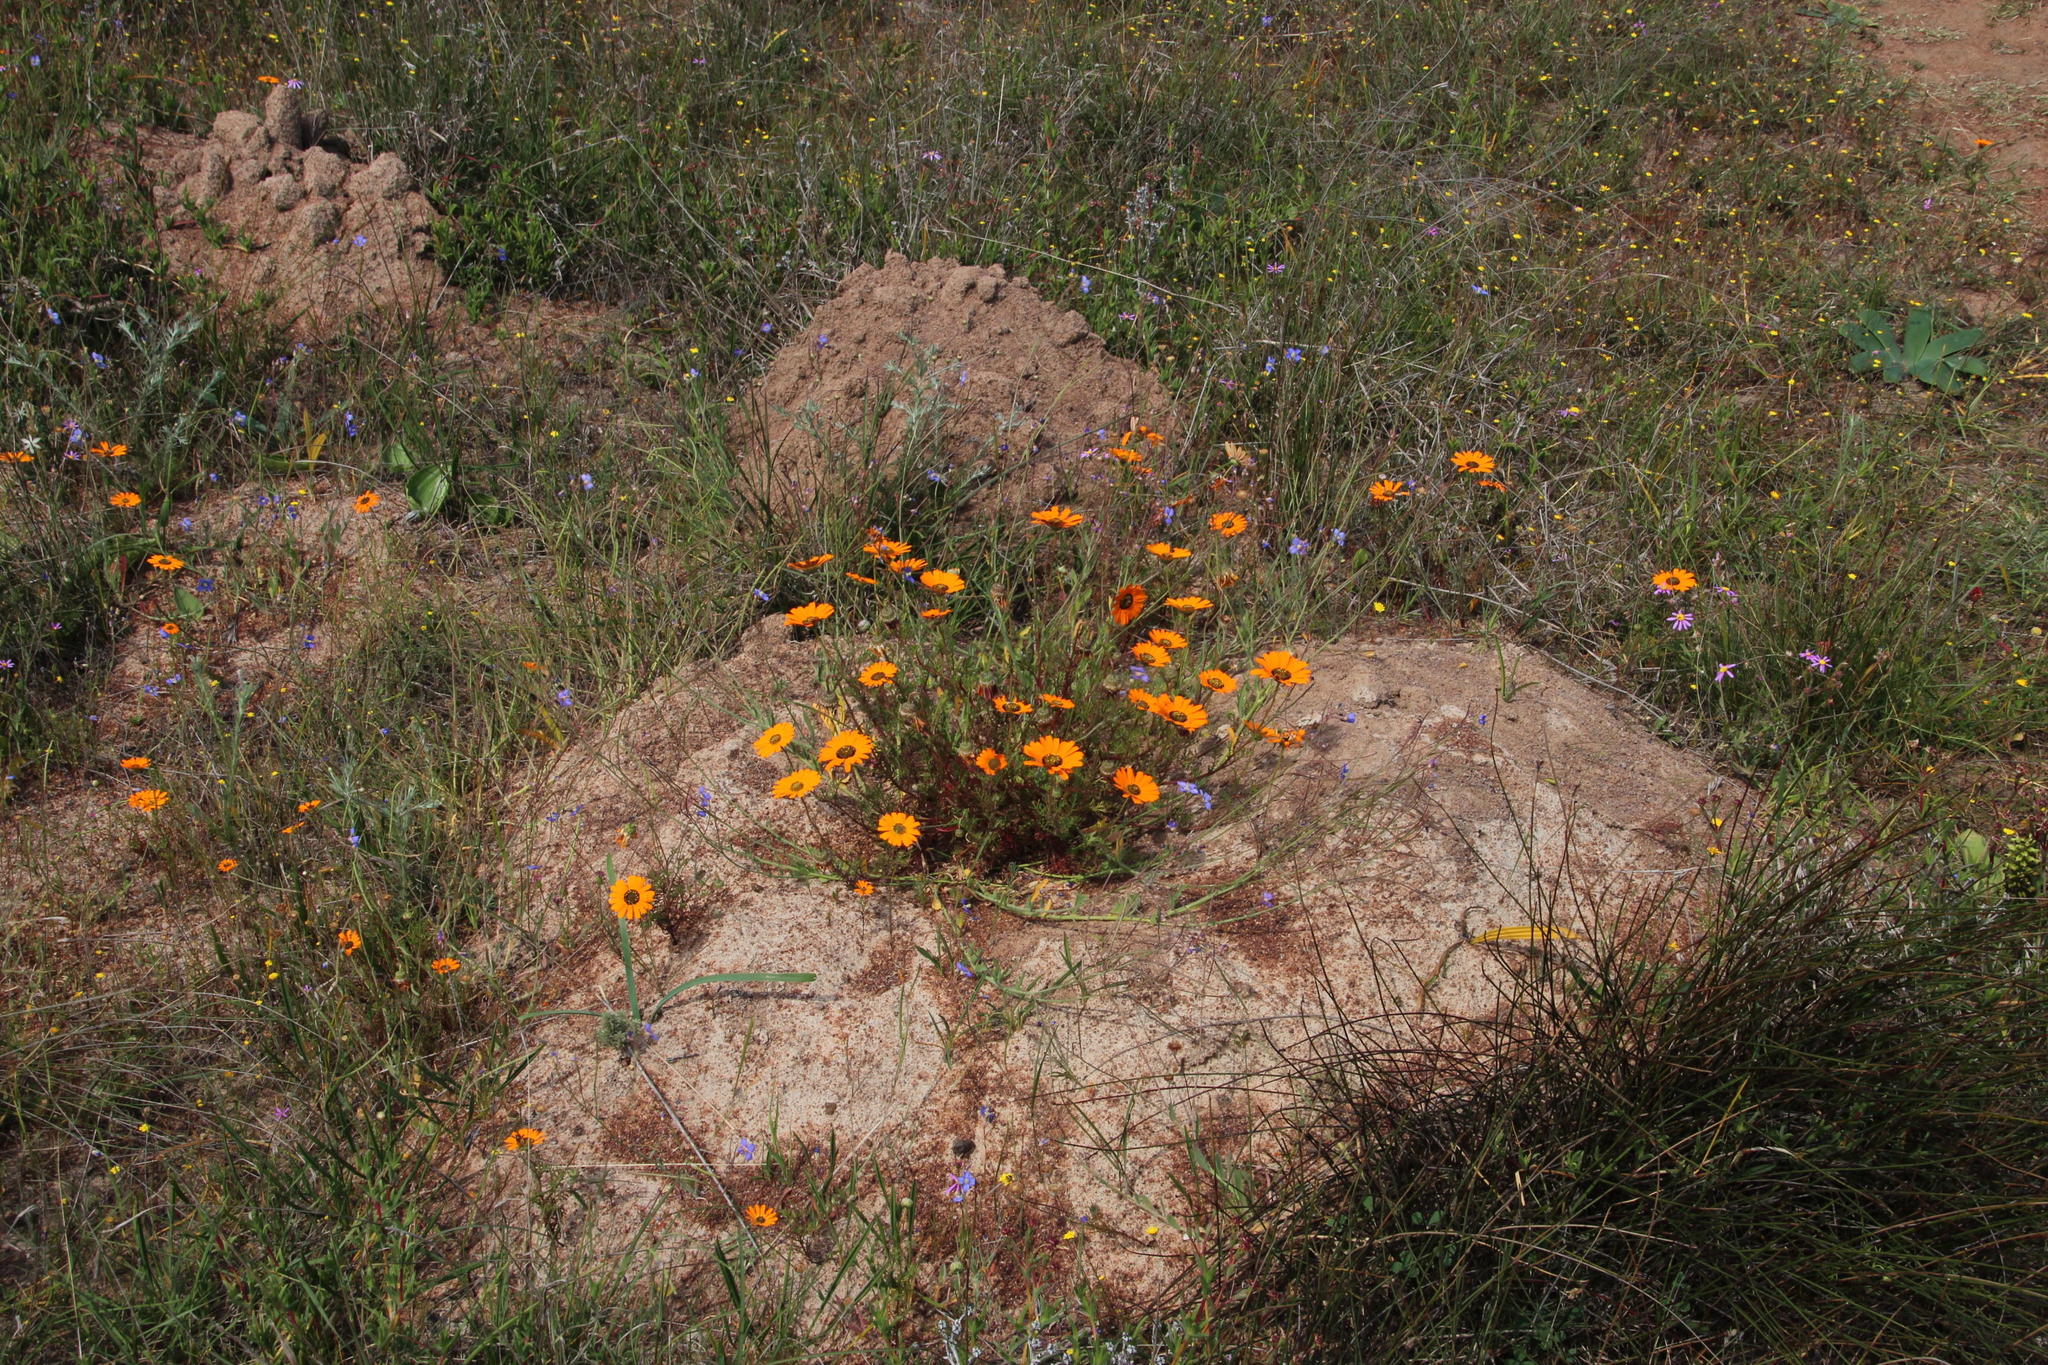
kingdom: Animalia
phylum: Chordata
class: Mammalia
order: Rodentia
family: Bathyergidae
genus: Bathyergus
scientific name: Bathyergus suillus
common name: Cape dune mole rat
